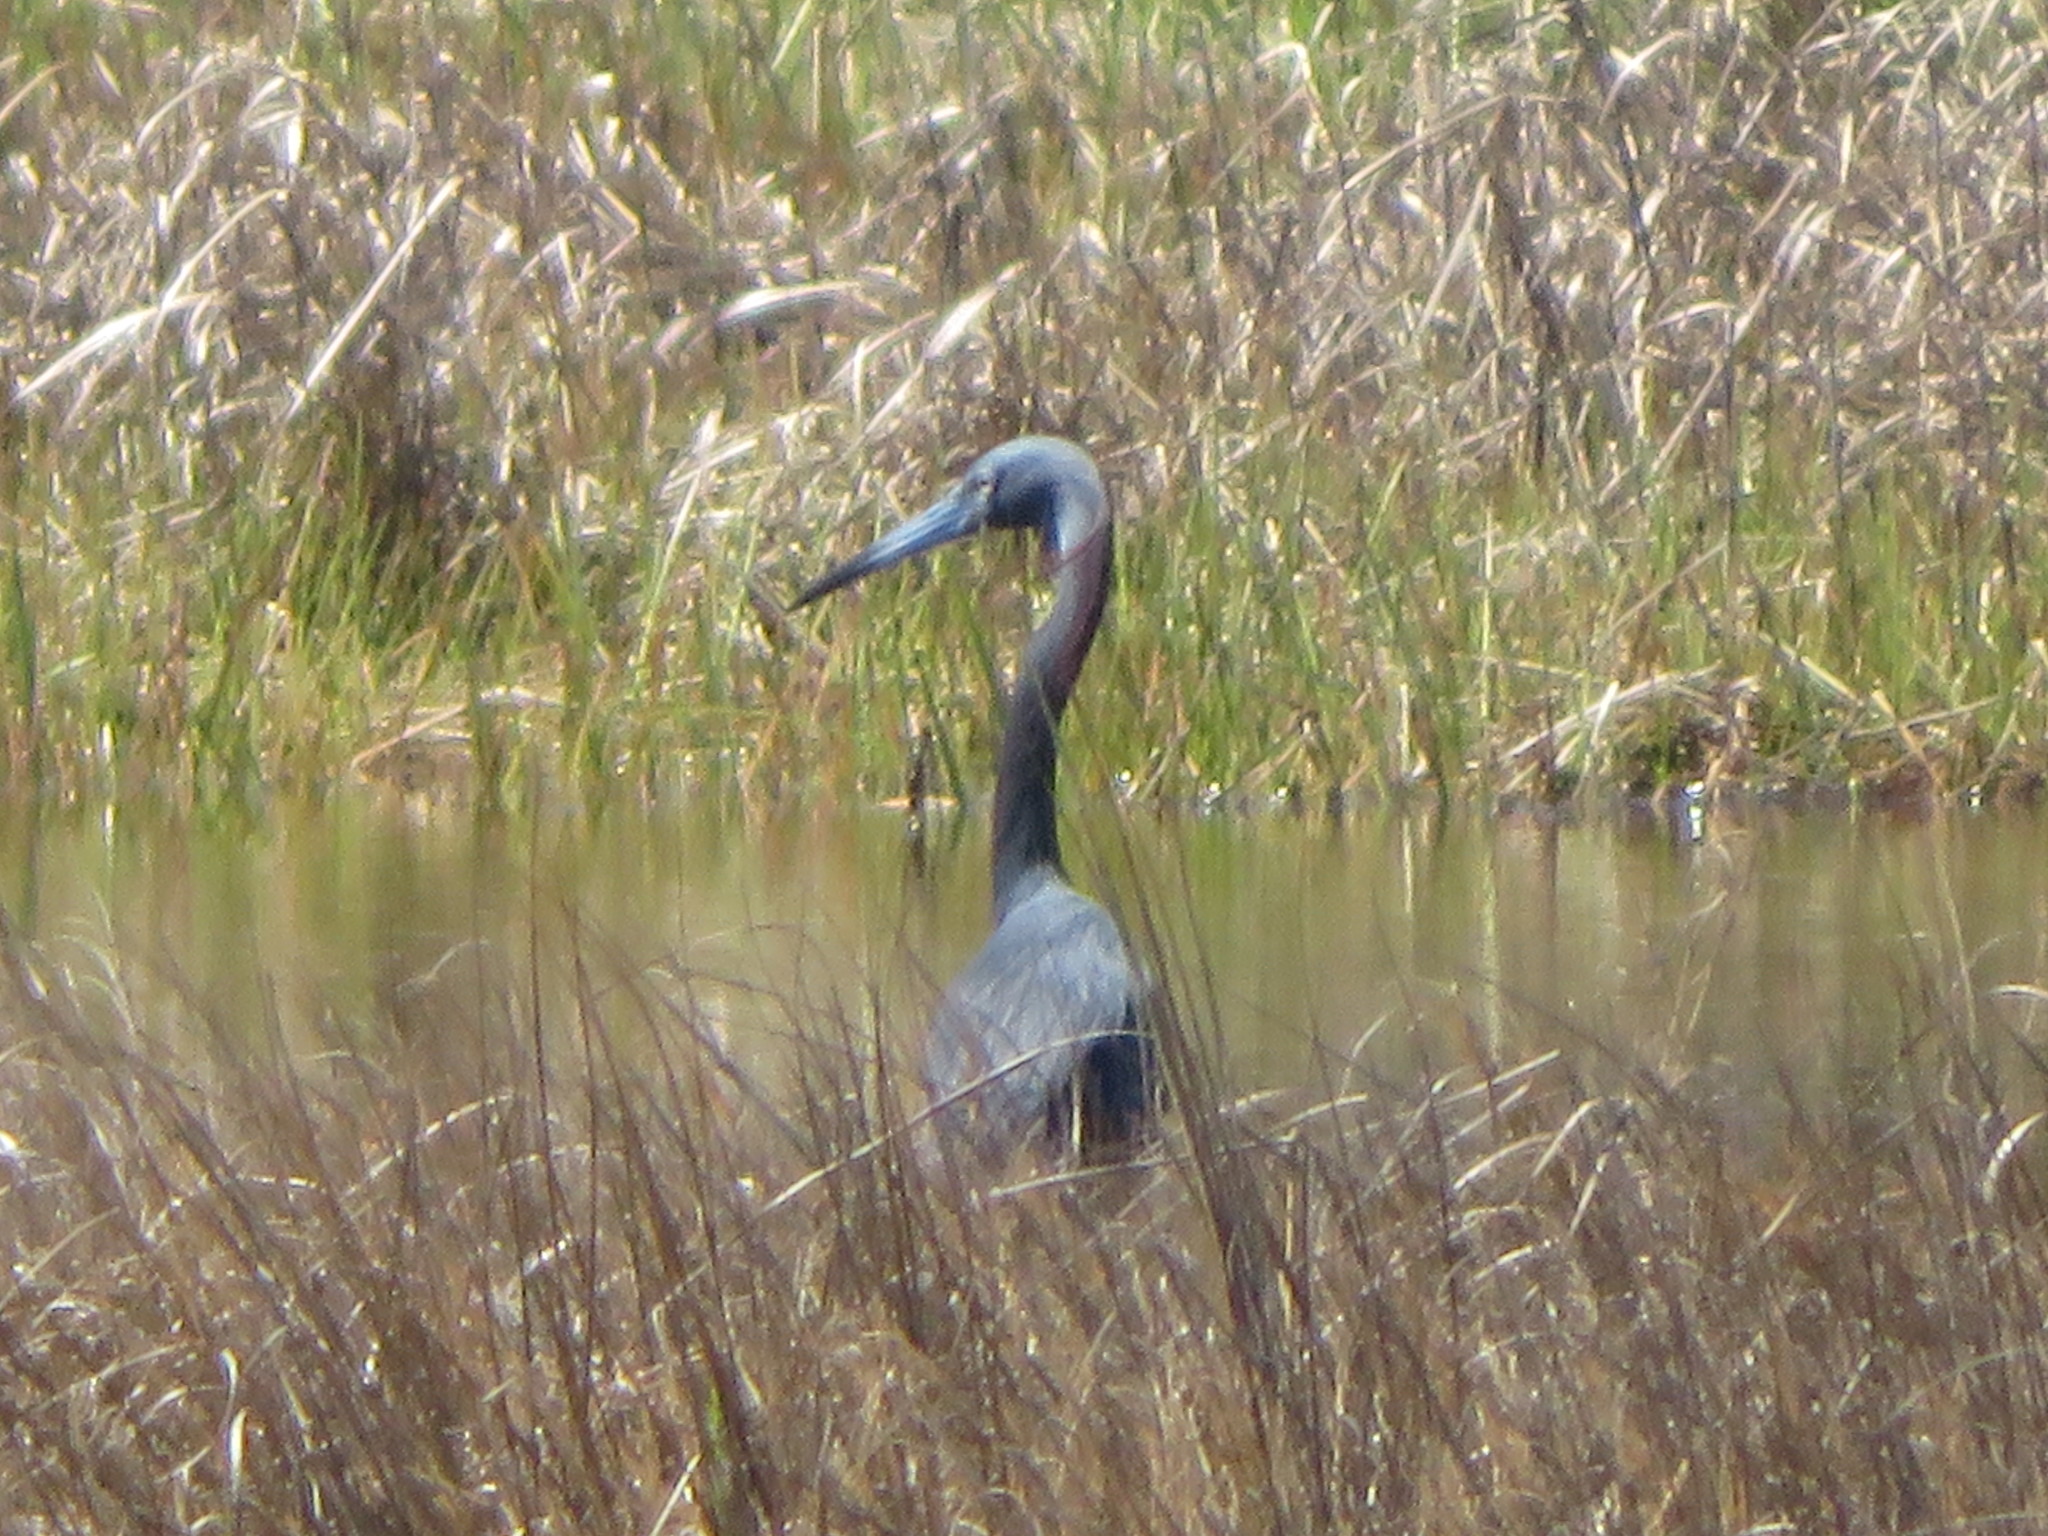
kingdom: Animalia
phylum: Chordata
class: Aves
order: Pelecaniformes
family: Ardeidae
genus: Egretta
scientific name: Egretta
